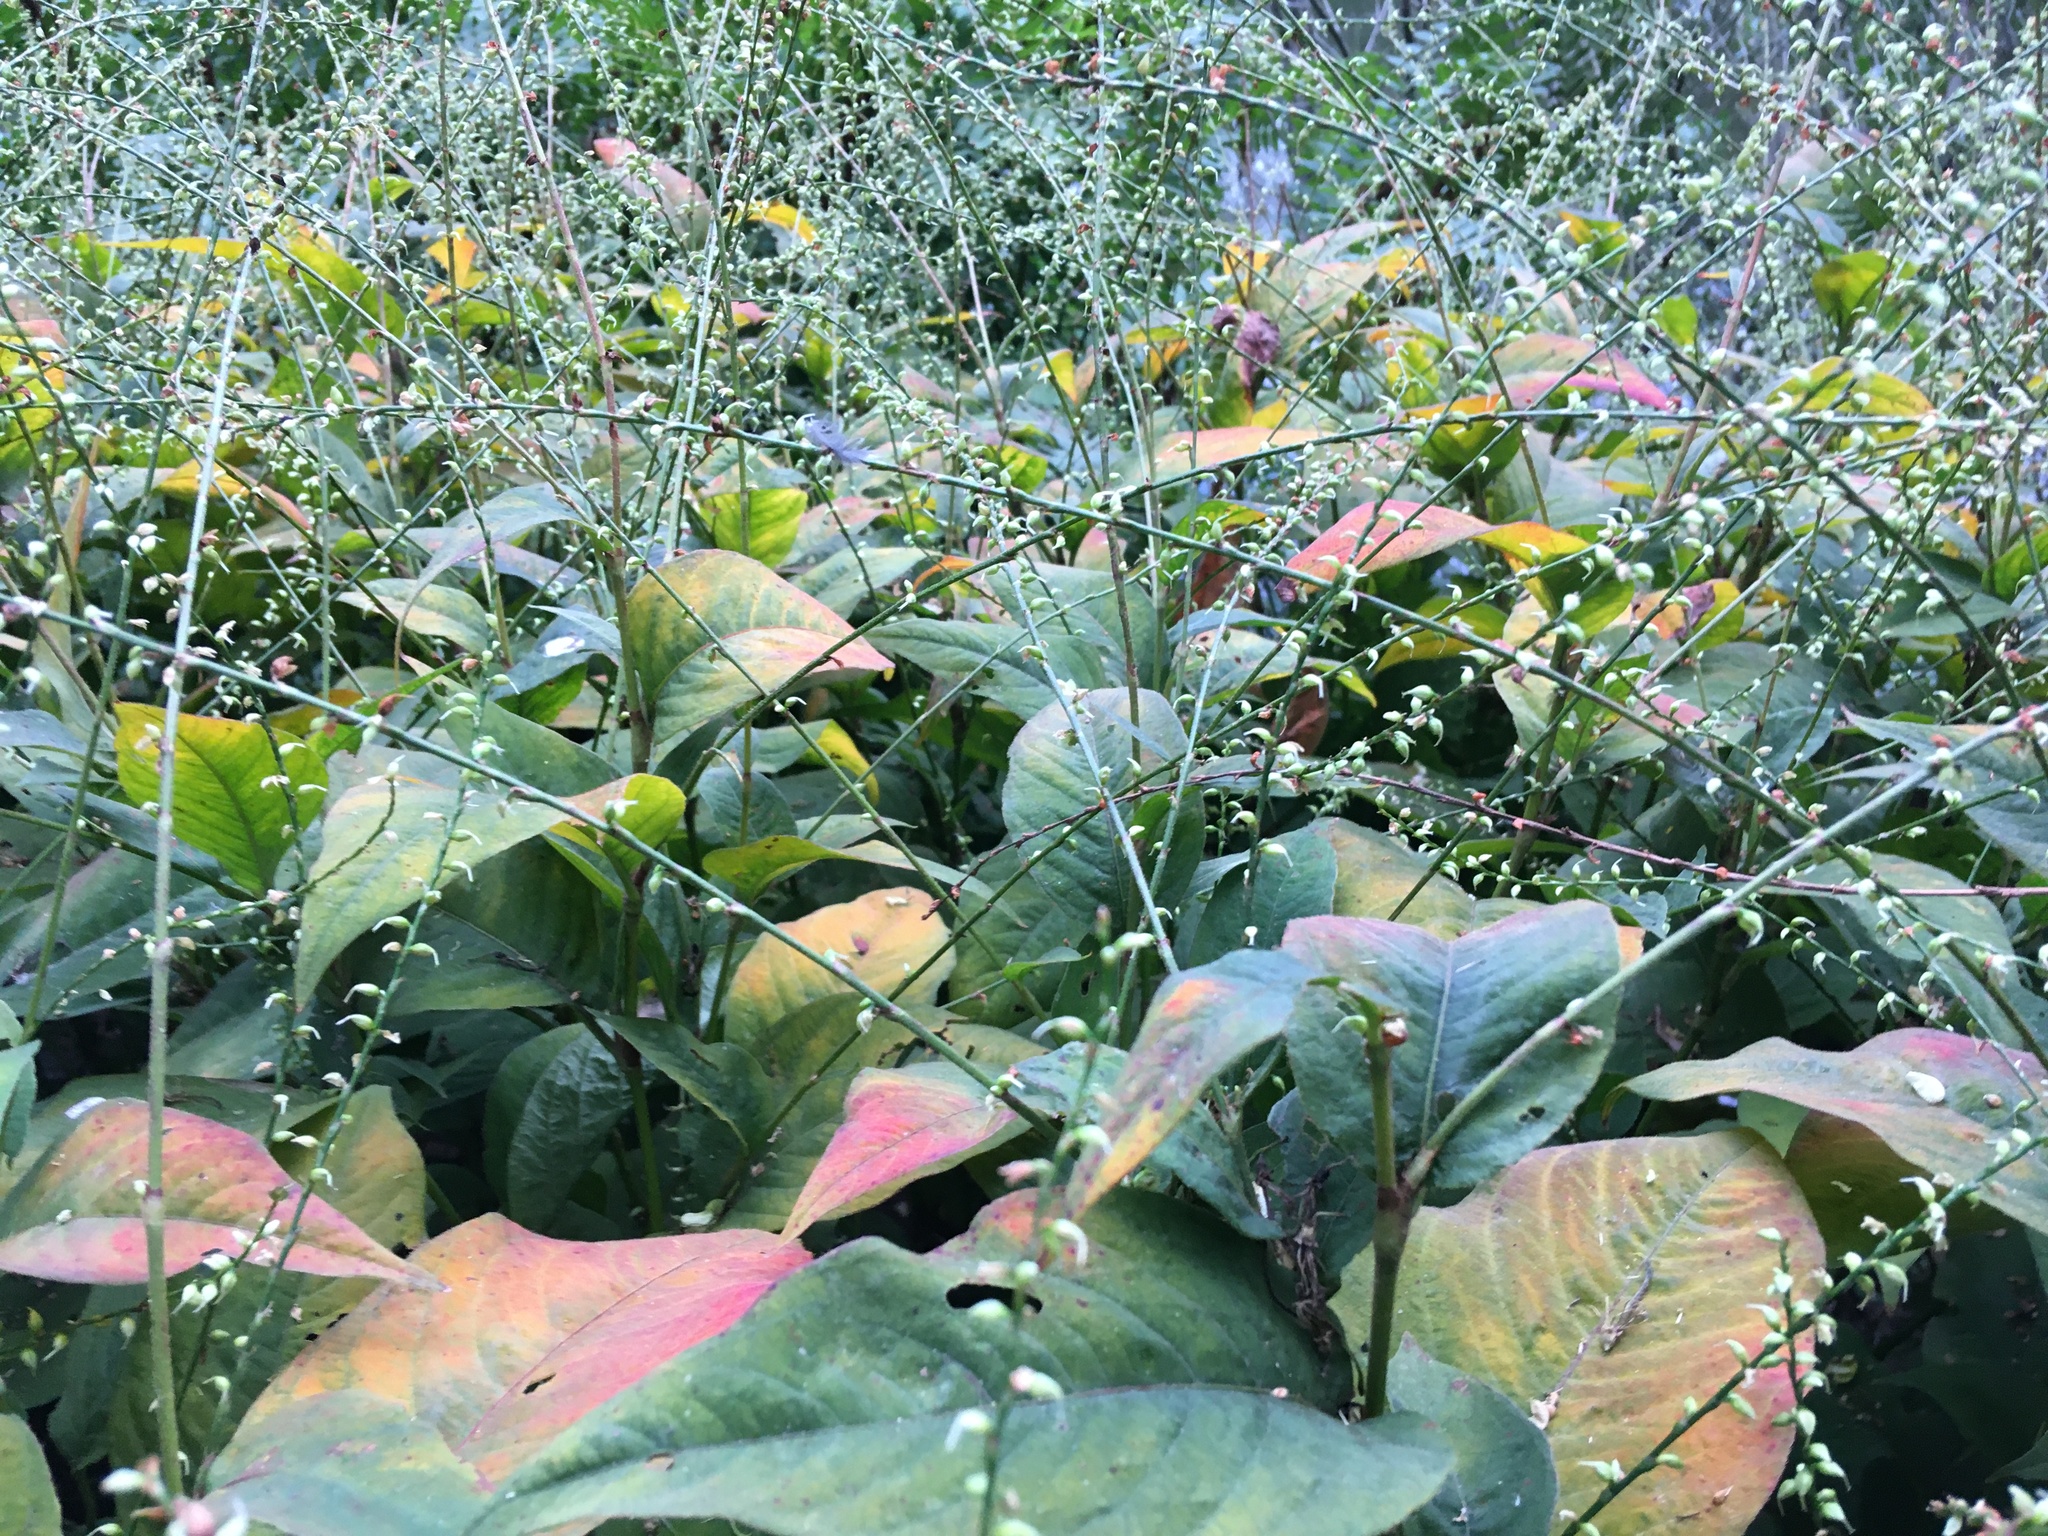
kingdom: Plantae
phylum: Tracheophyta
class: Magnoliopsida
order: Caryophyllales
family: Polygonaceae
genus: Persicaria
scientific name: Persicaria virginiana
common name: Jumpseed
